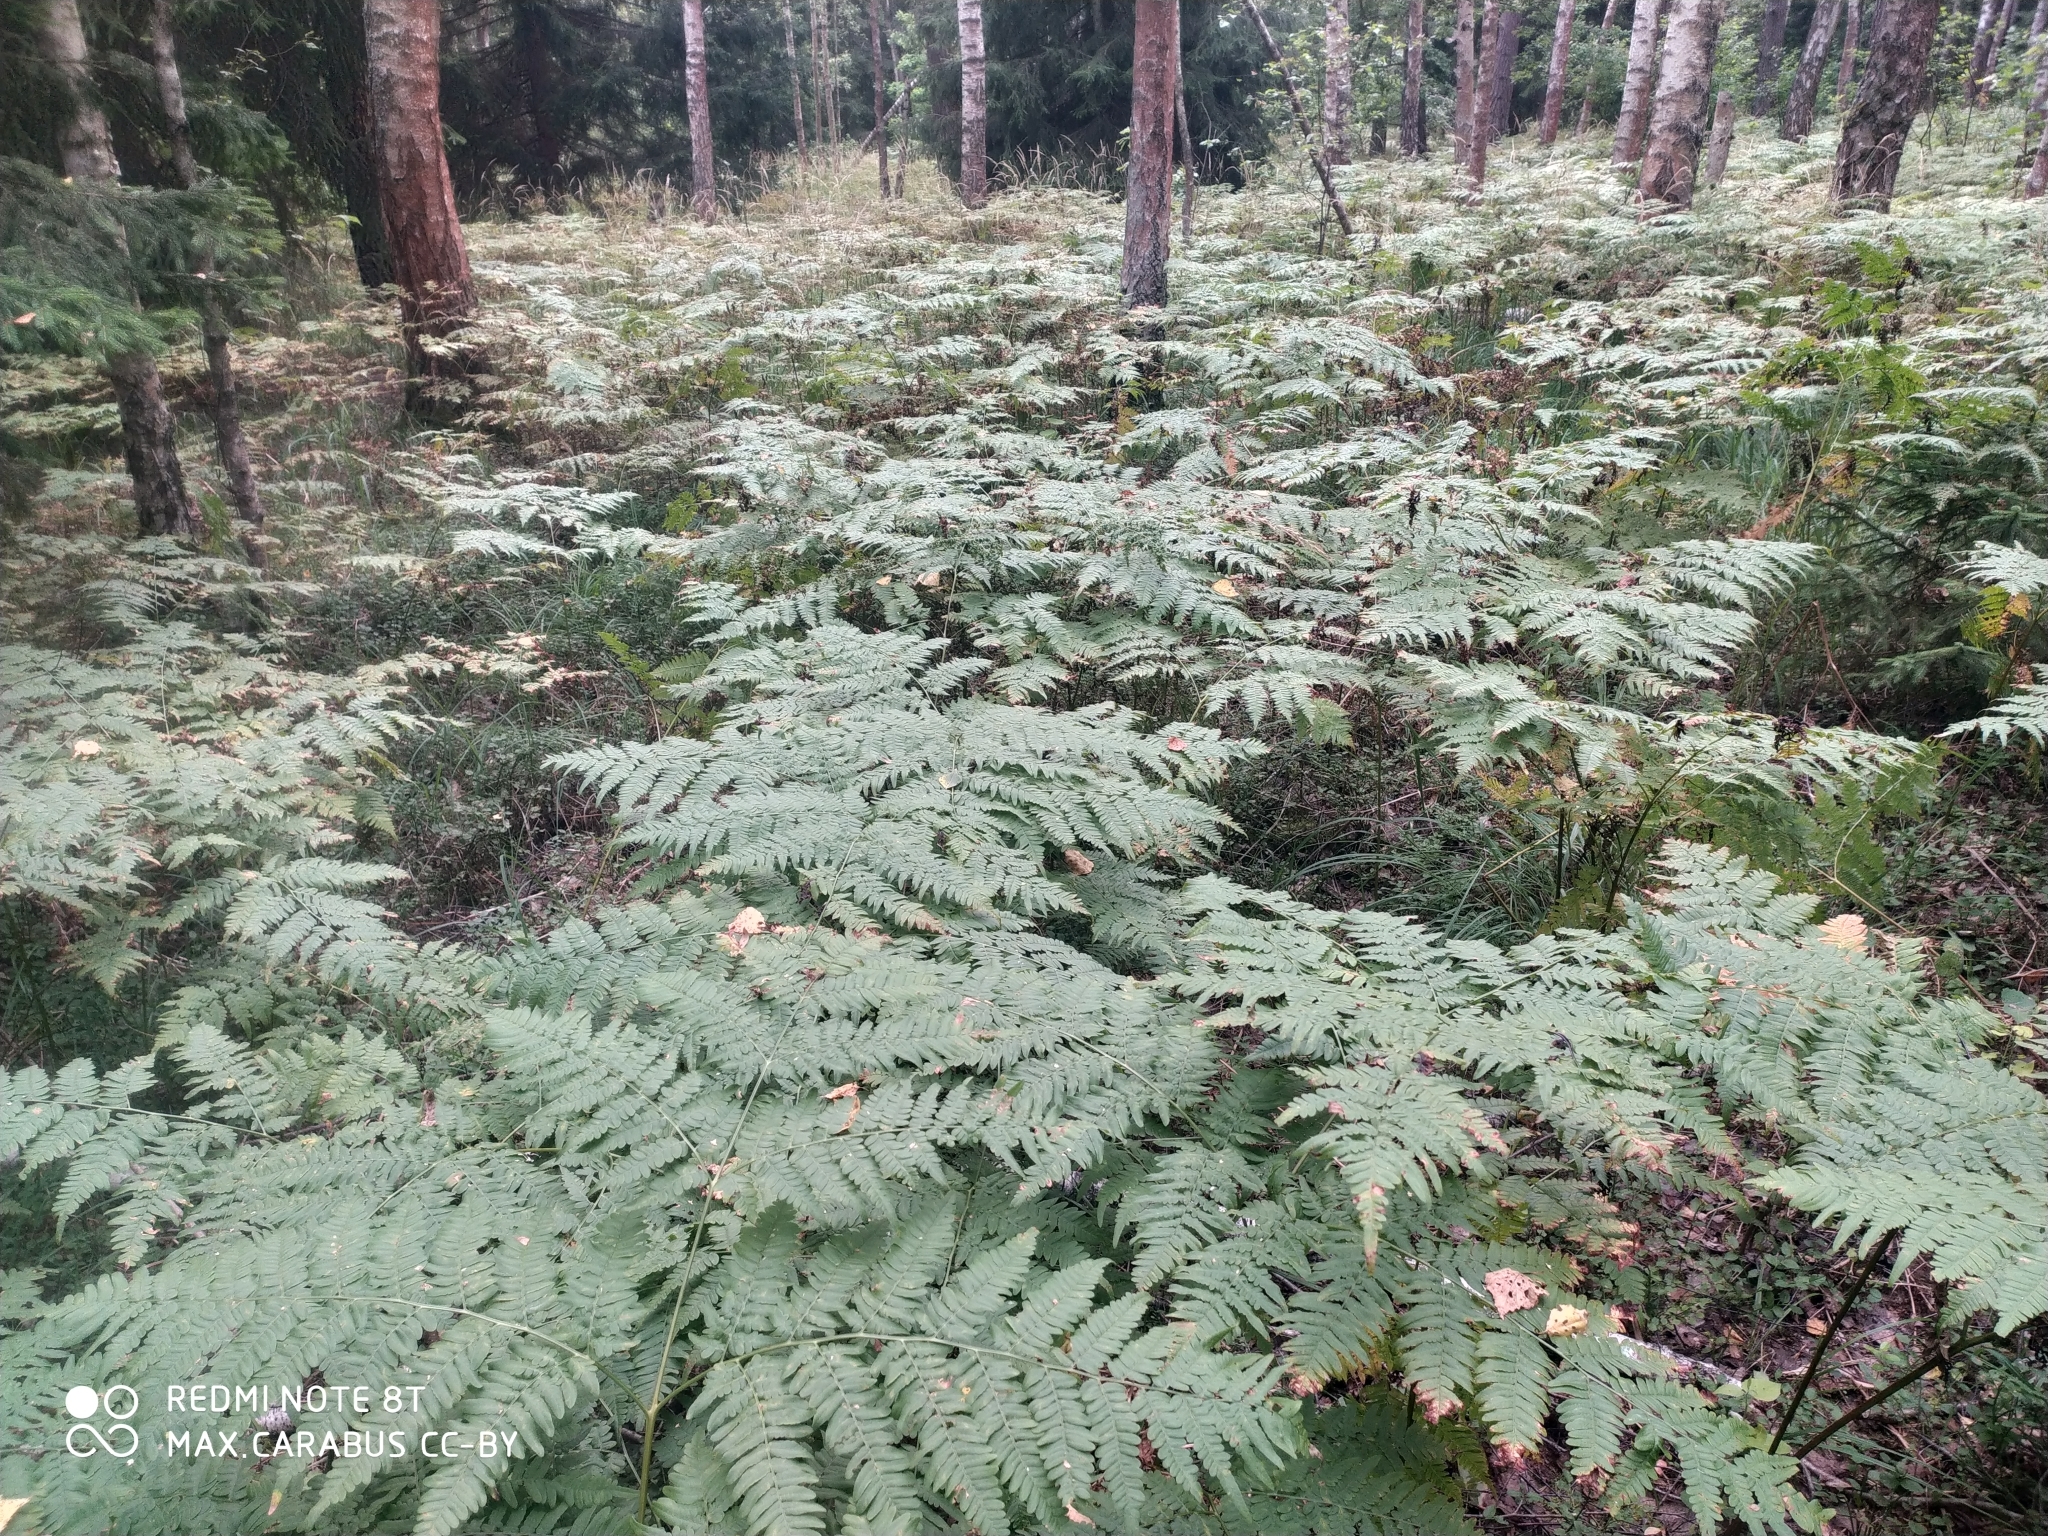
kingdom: Plantae
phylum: Tracheophyta
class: Polypodiopsida
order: Polypodiales
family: Dennstaedtiaceae
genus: Pteridium
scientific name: Pteridium aquilinum
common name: Bracken
